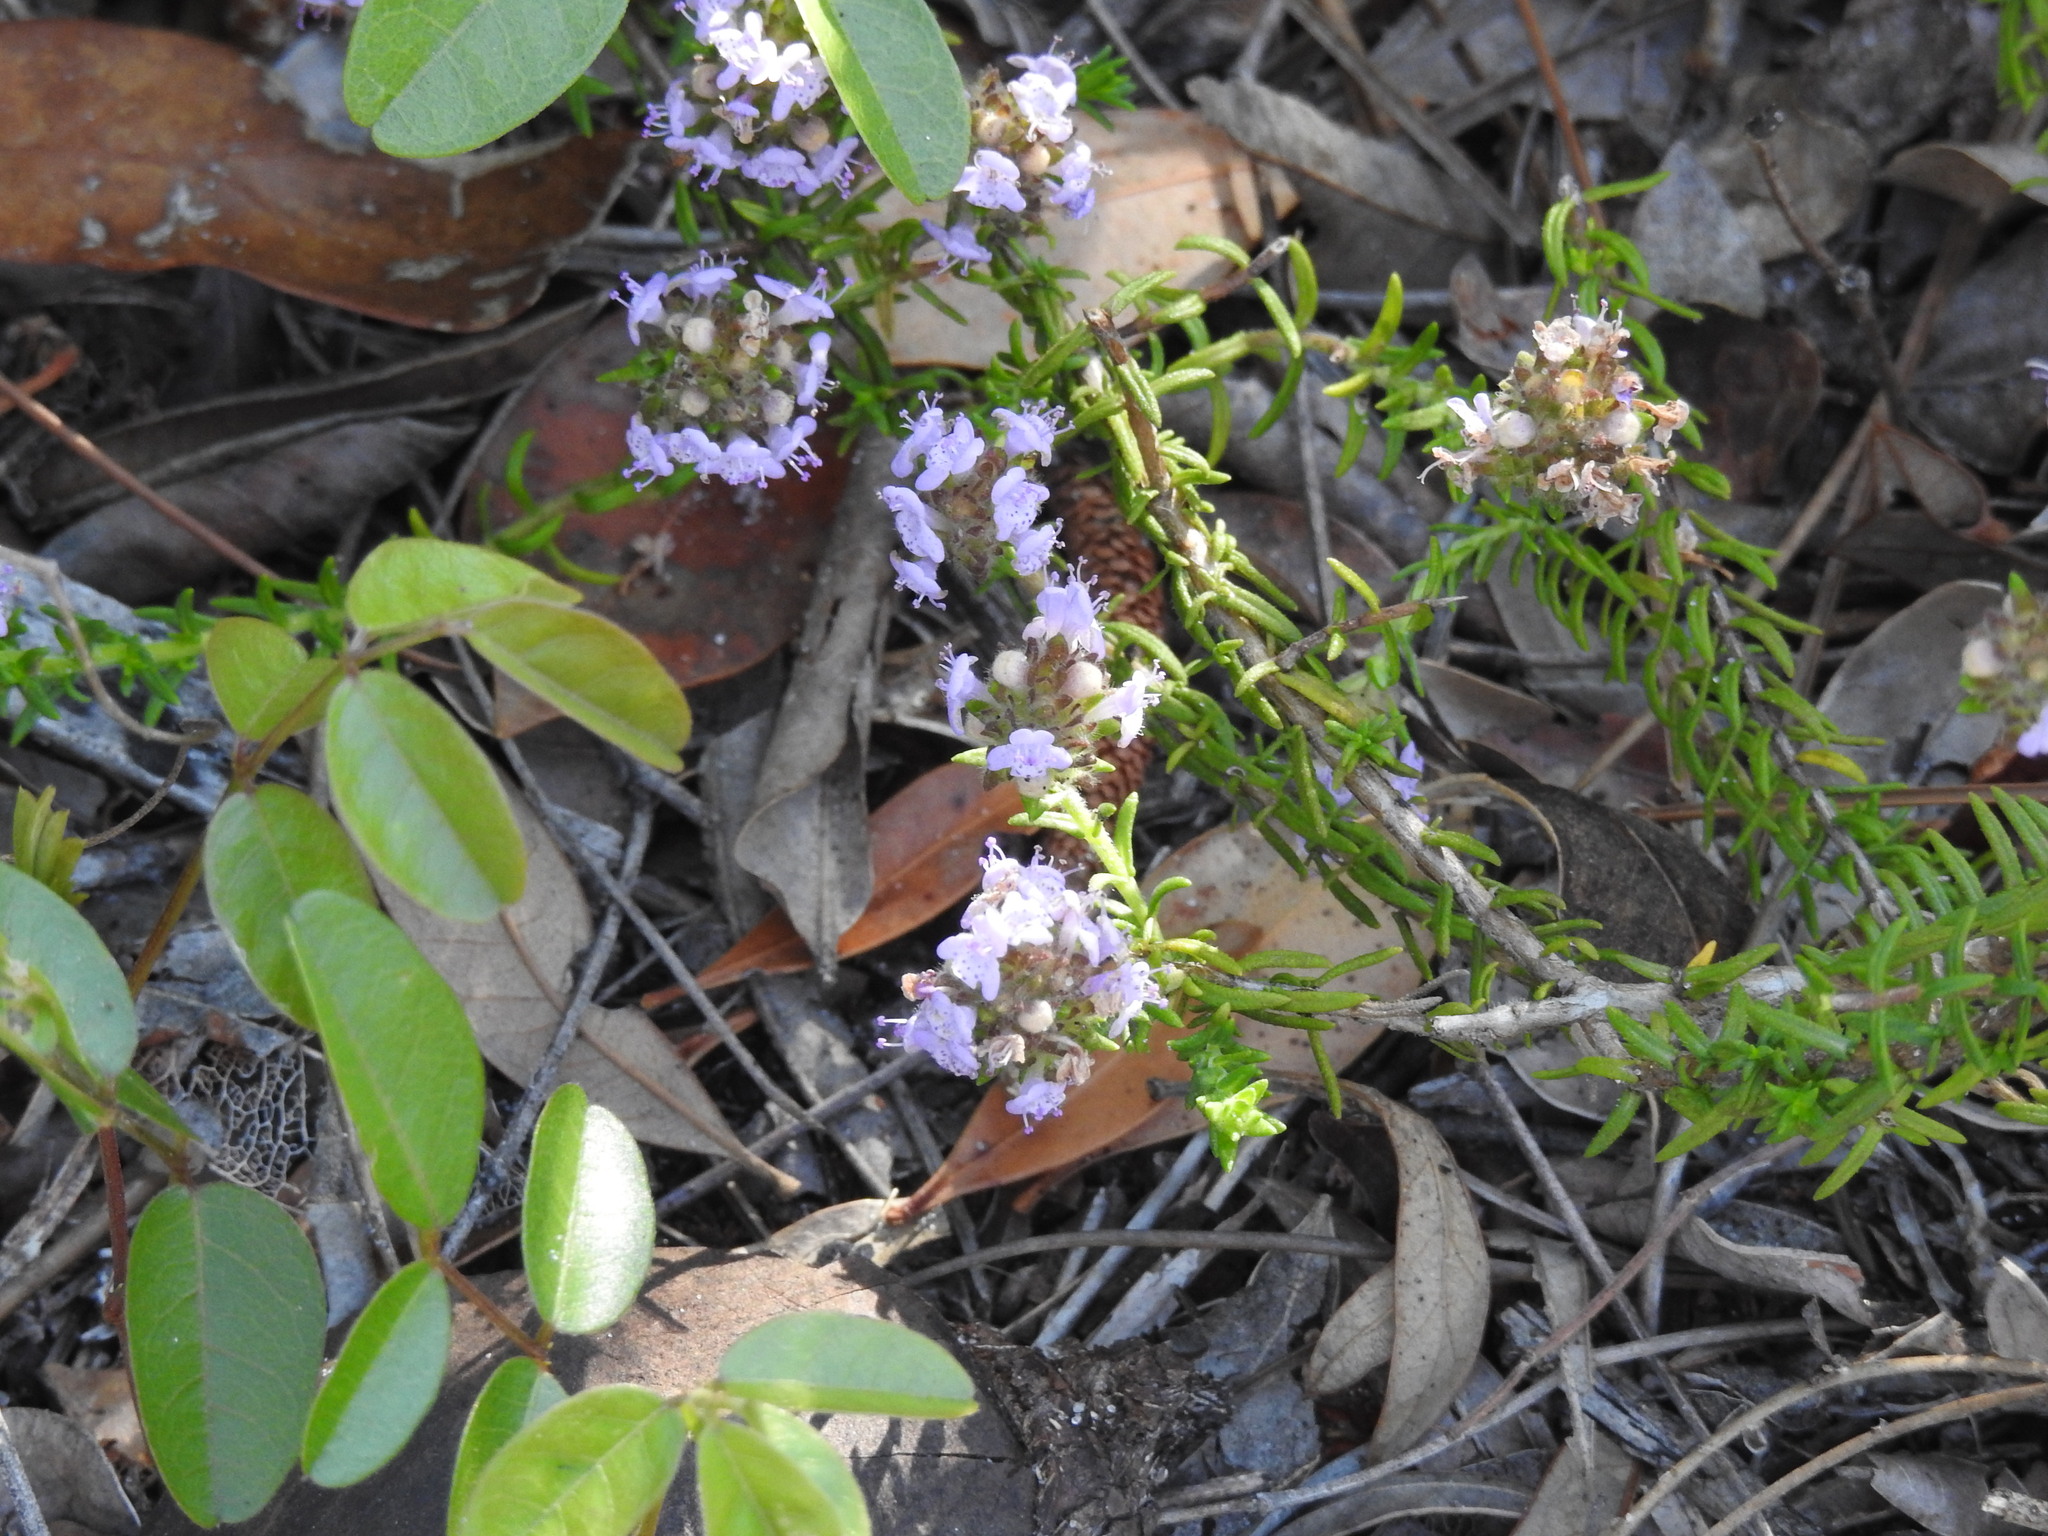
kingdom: Plantae
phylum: Tracheophyta
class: Magnoliopsida
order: Lamiales
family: Lamiaceae
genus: Piloblephis
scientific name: Piloblephis rigida
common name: Wild pennyroyal
